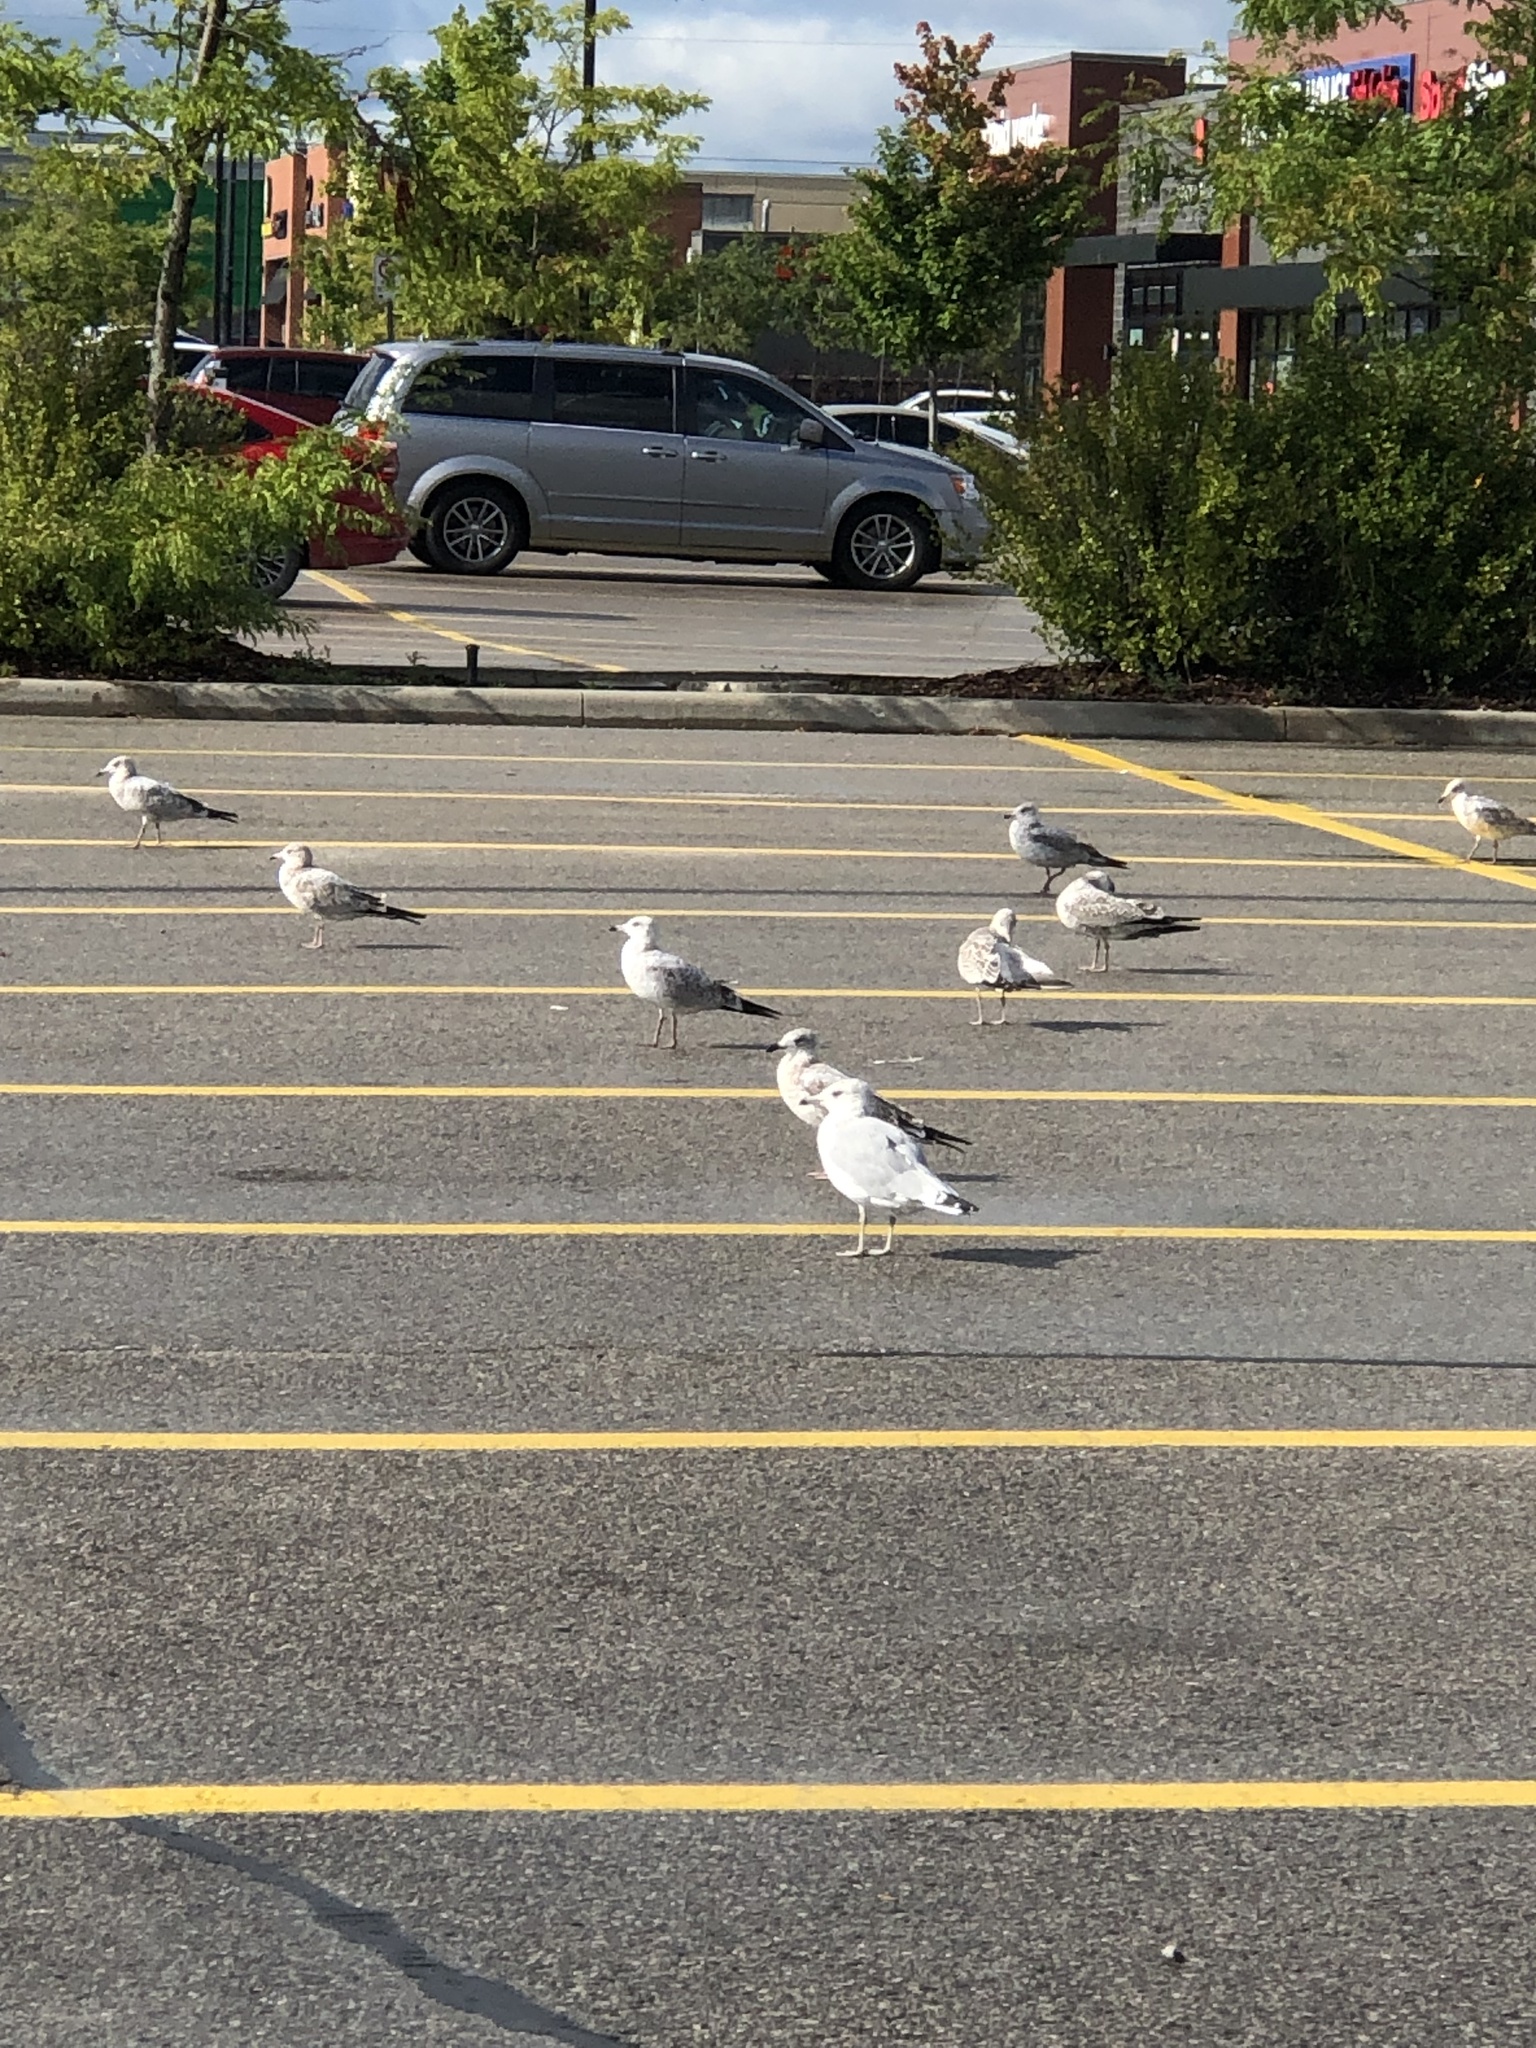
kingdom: Animalia
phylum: Chordata
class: Aves
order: Charadriiformes
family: Laridae
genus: Larus
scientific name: Larus delawarensis
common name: Ring-billed gull
